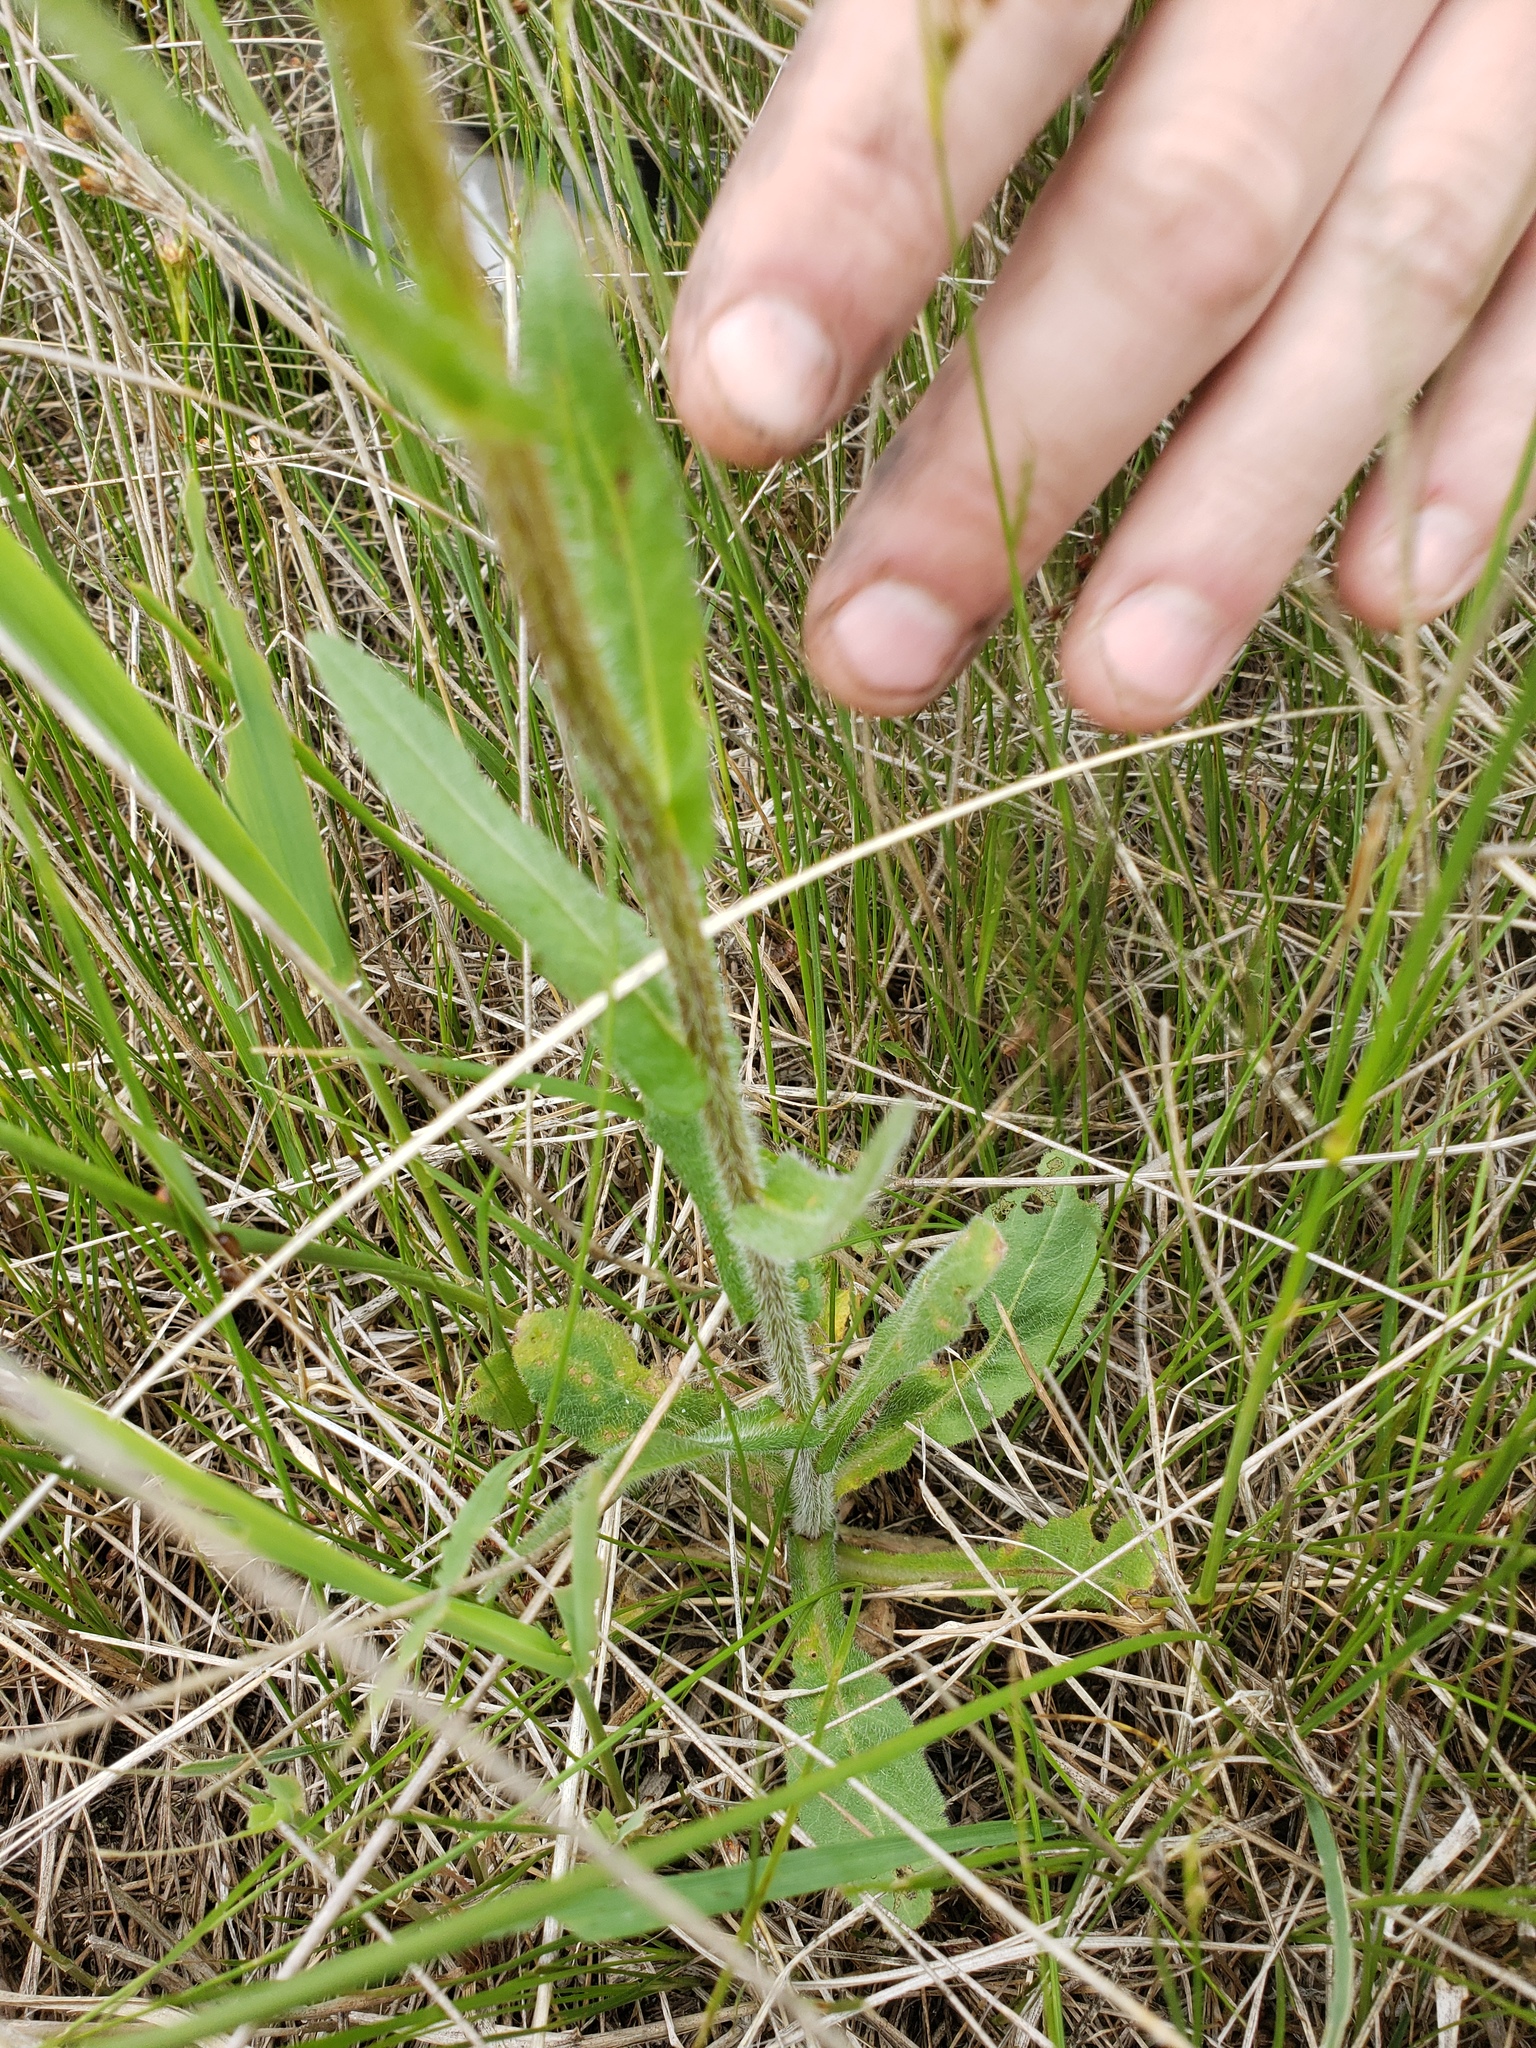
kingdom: Plantae
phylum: Tracheophyta
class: Magnoliopsida
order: Asterales
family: Asteraceae
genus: Erigeron
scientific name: Erigeron philadelphicus
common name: Robin's-plantain
